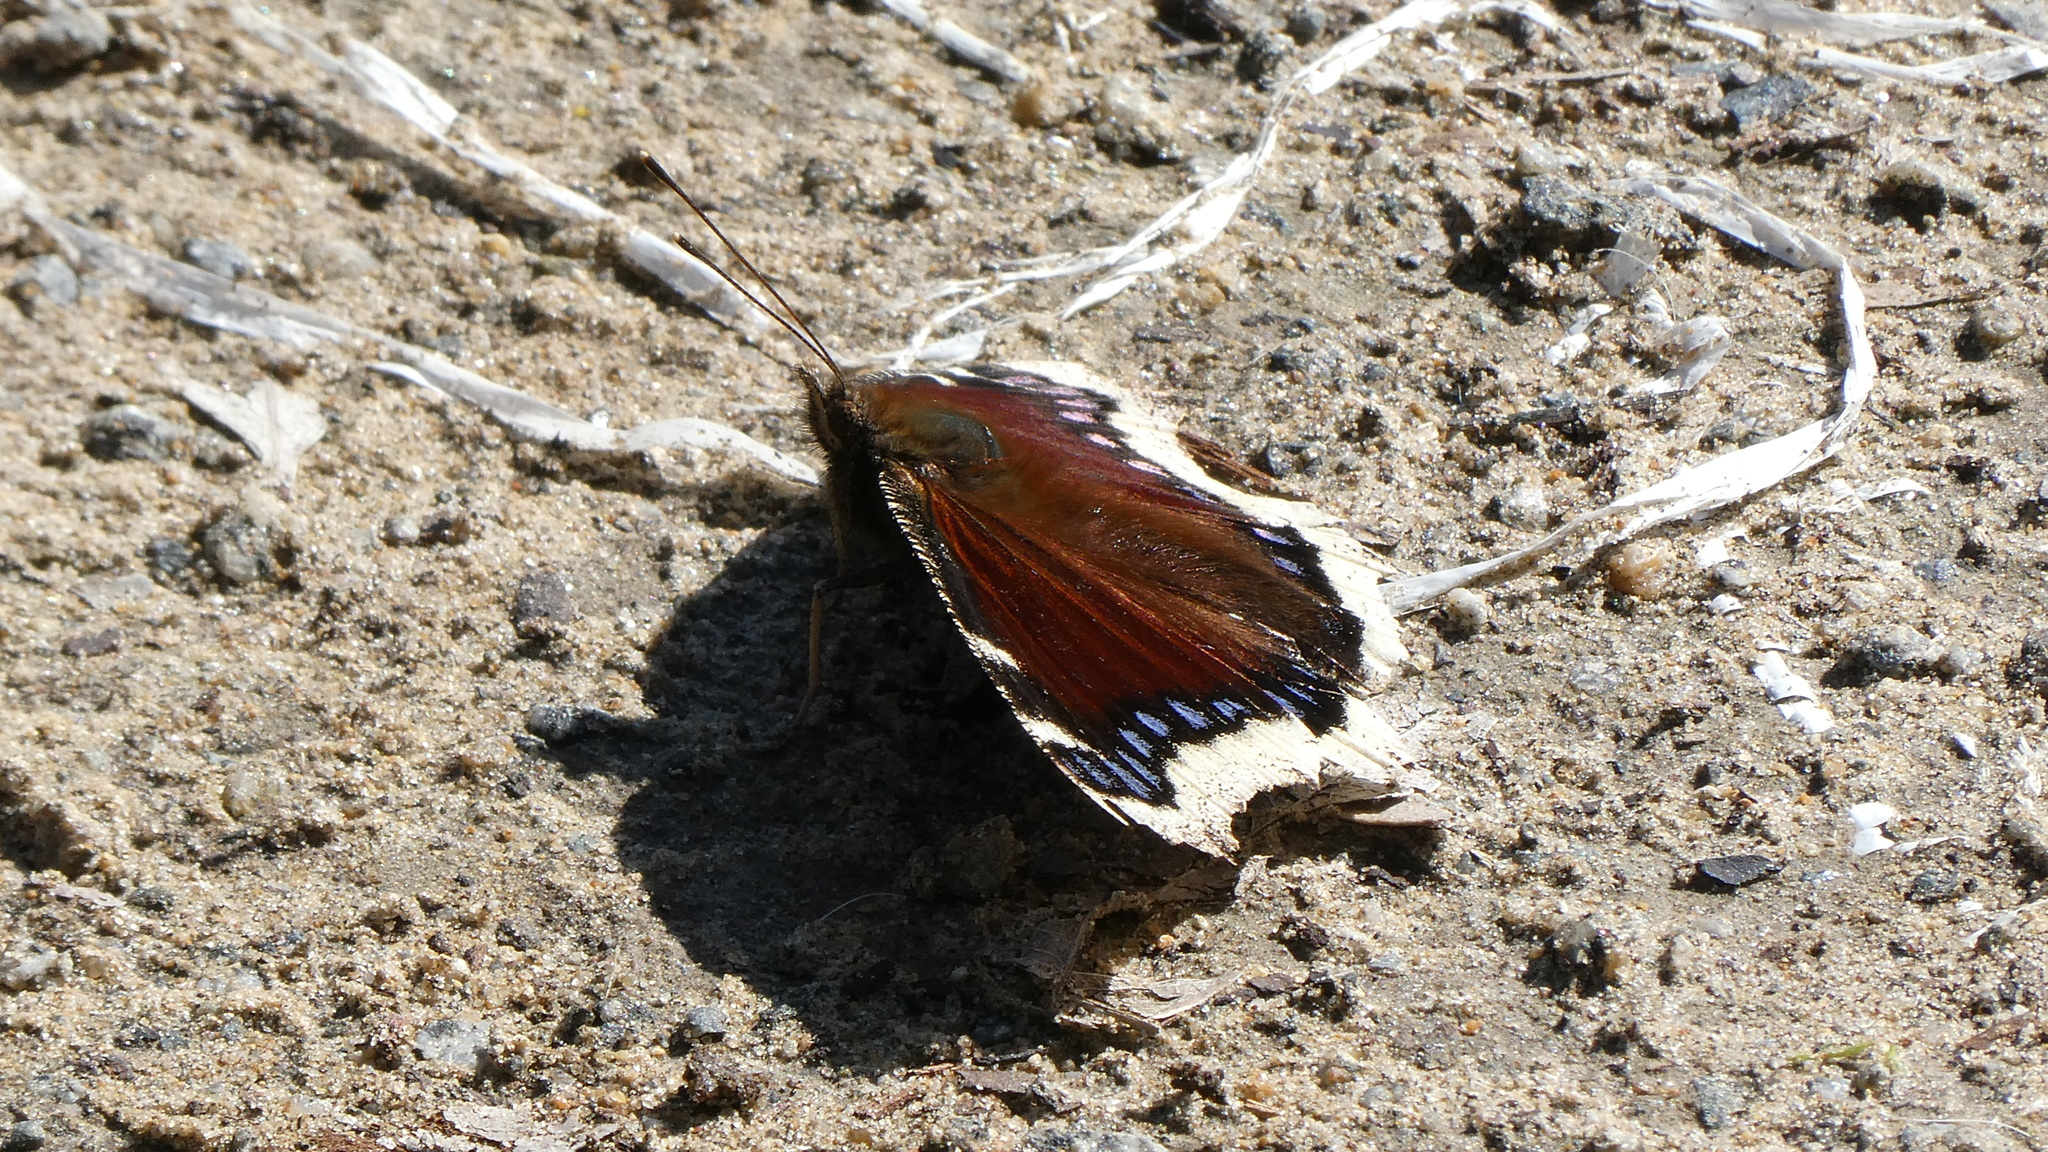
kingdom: Animalia
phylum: Arthropoda
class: Insecta
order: Lepidoptera
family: Nymphalidae
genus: Nymphalis
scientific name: Nymphalis antiopa
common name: Camberwell beauty
